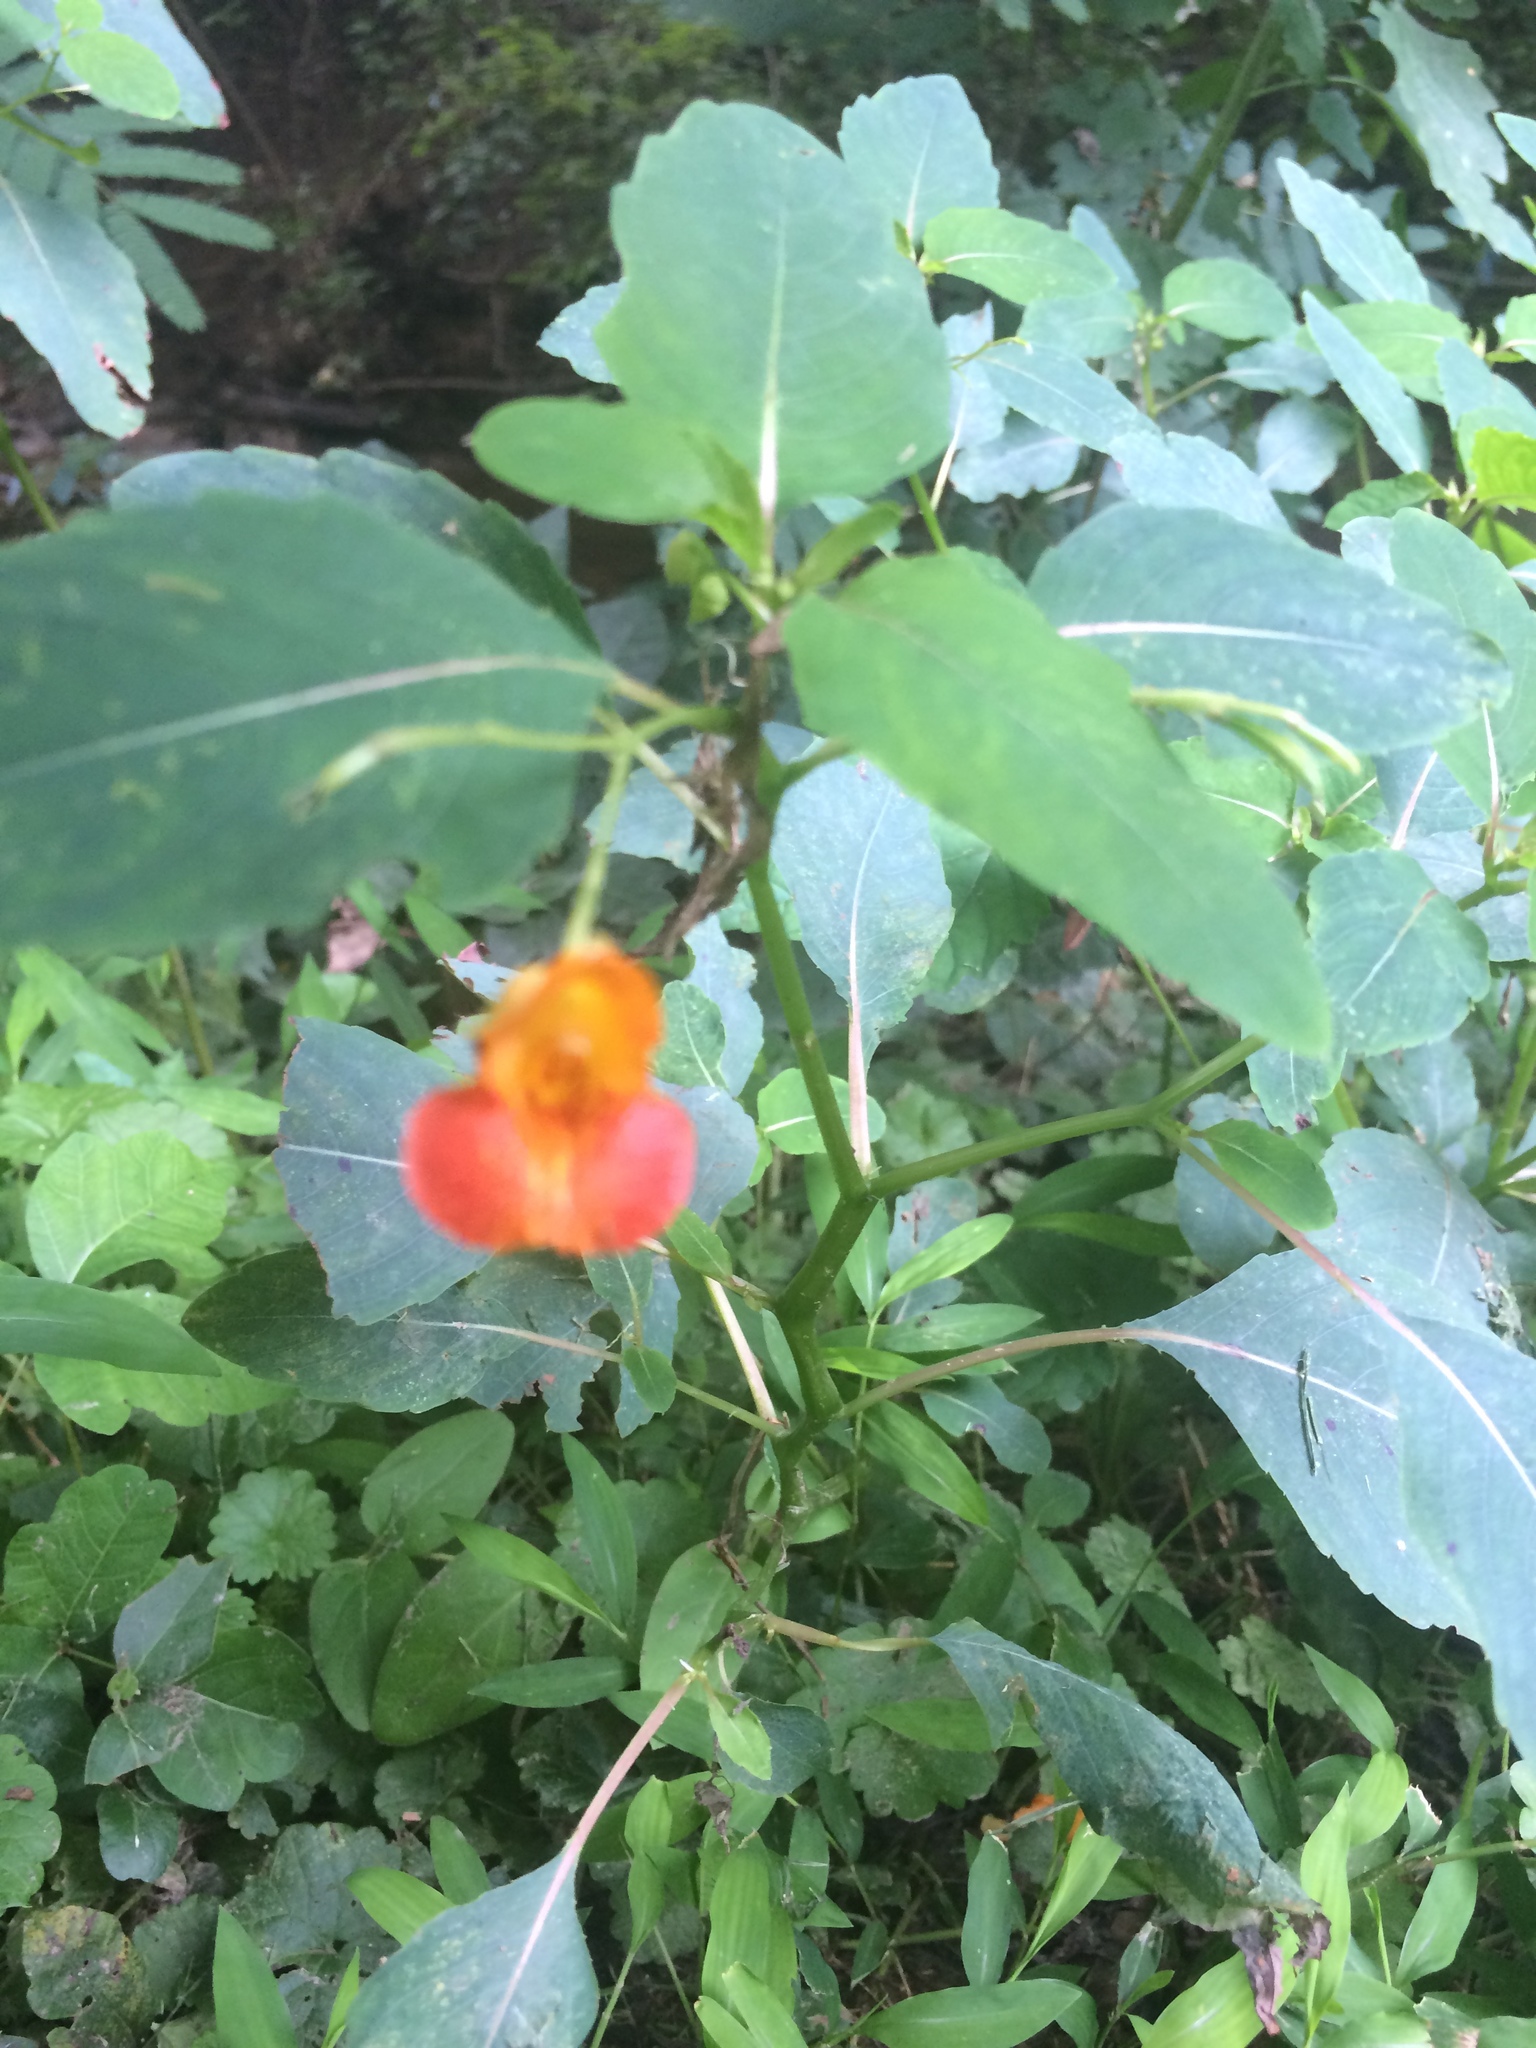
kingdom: Plantae
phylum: Tracheophyta
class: Magnoliopsida
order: Ericales
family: Balsaminaceae
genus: Impatiens
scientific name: Impatiens capensis
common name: Orange balsam
